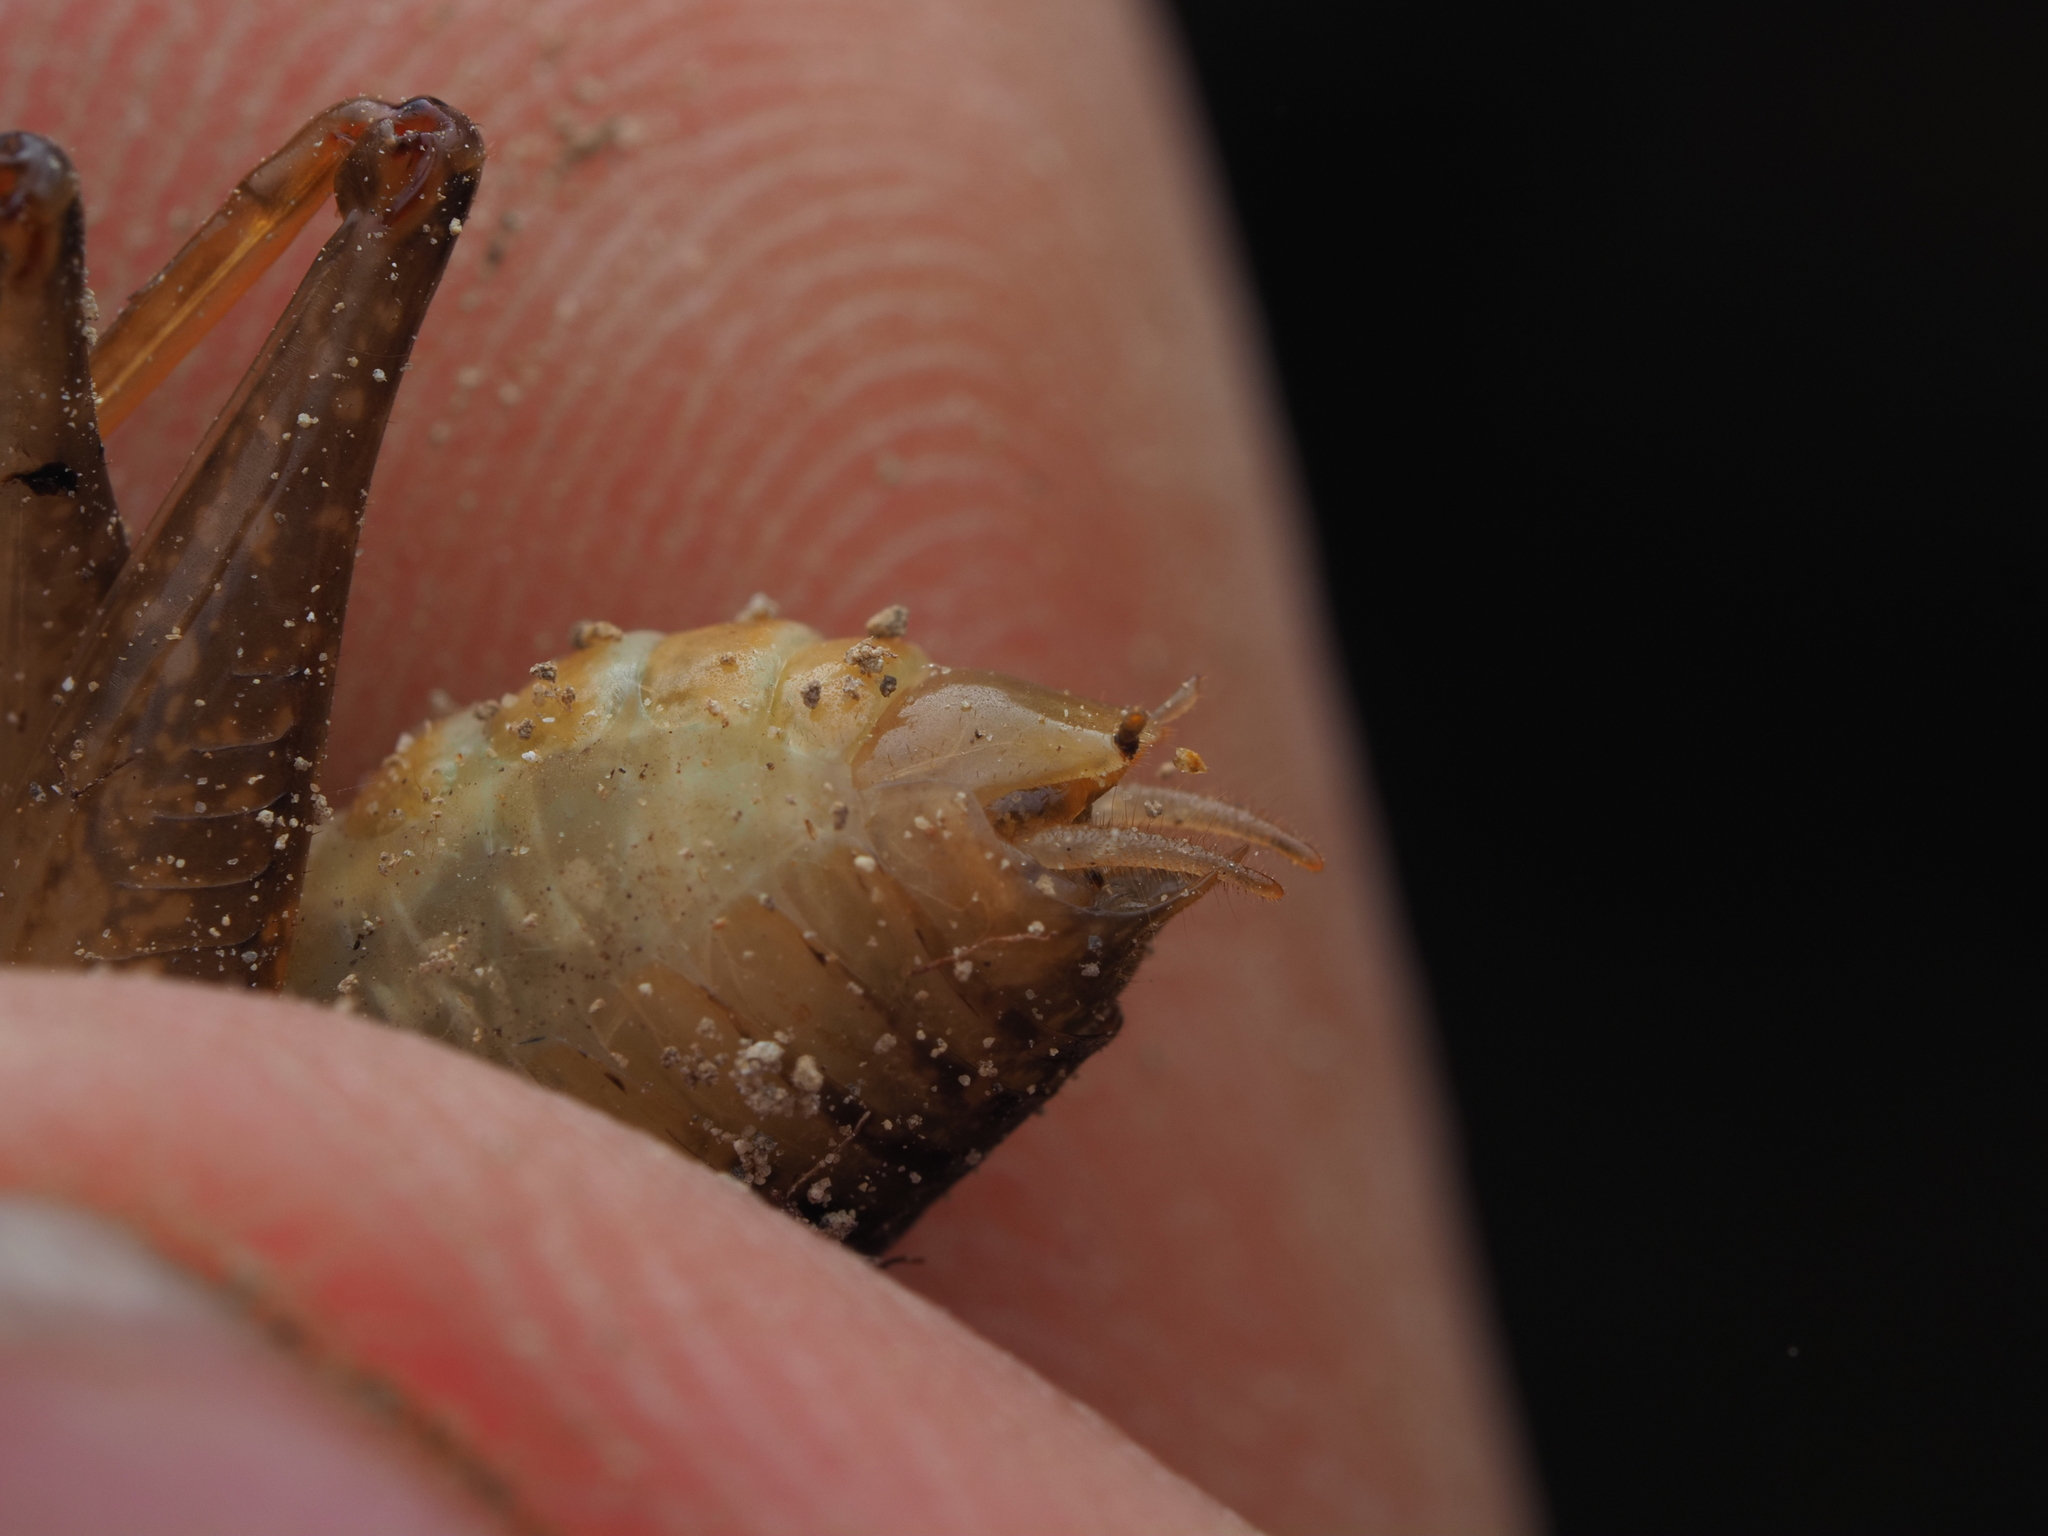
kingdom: Animalia
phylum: Arthropoda
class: Insecta
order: Orthoptera
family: Anostostomatidae
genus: Hemiandrus
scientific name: Hemiandrus maculifrons
